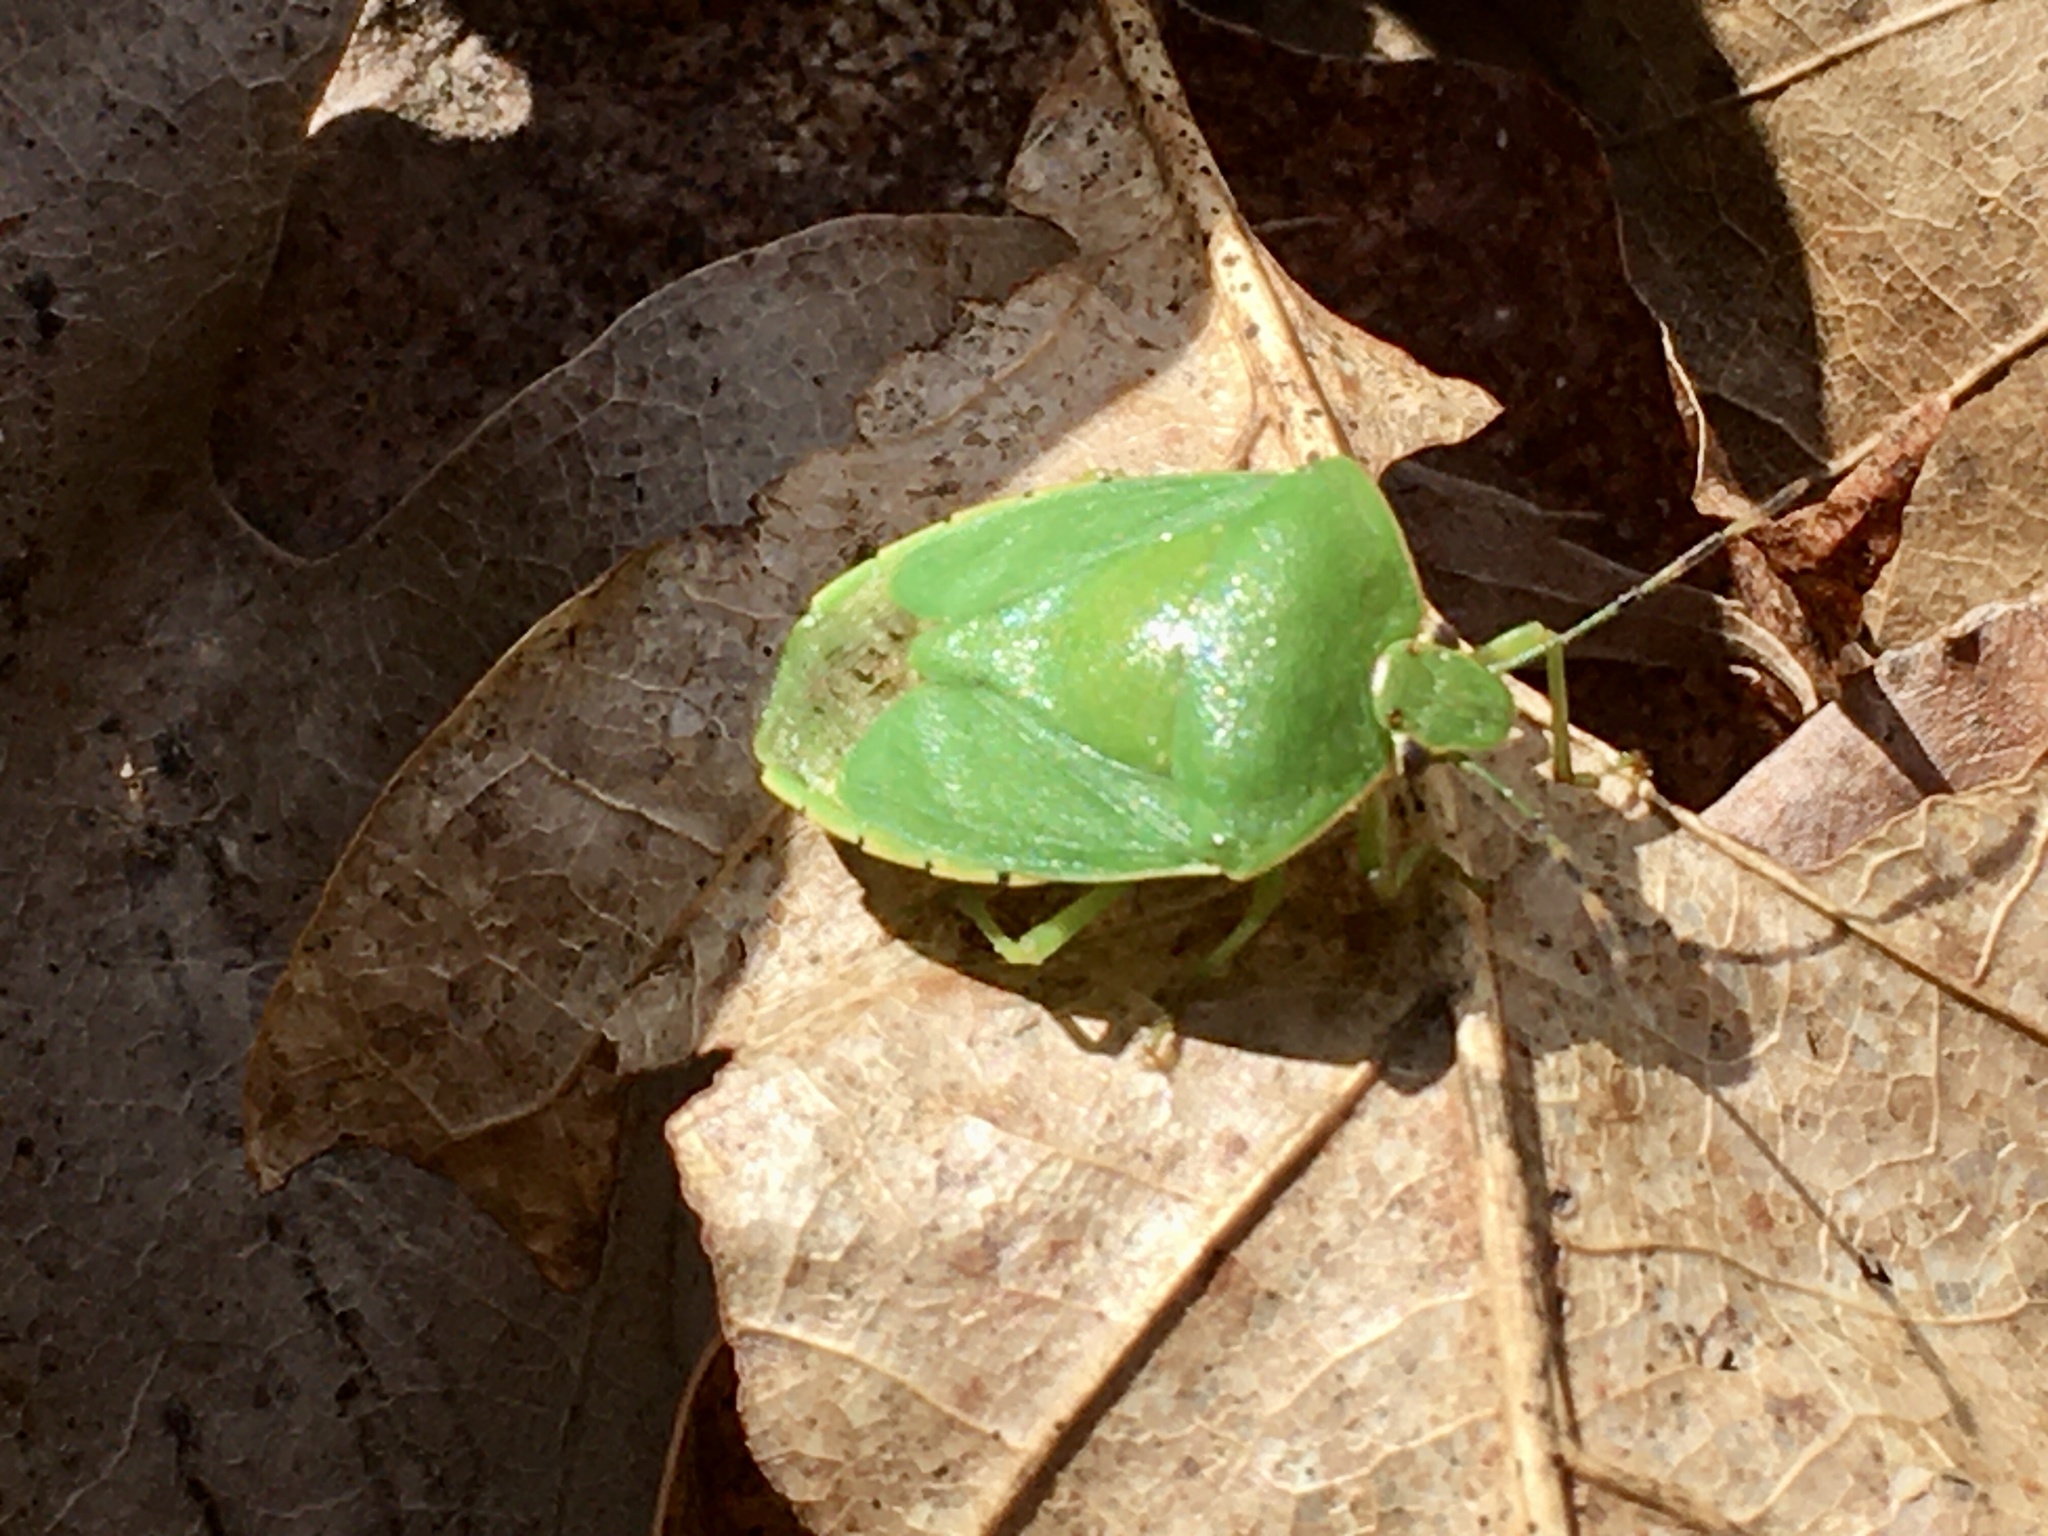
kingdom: Animalia
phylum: Arthropoda
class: Insecta
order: Hemiptera
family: Pentatomidae
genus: Chinavia
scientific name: Chinavia hilaris
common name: Green stink bug
